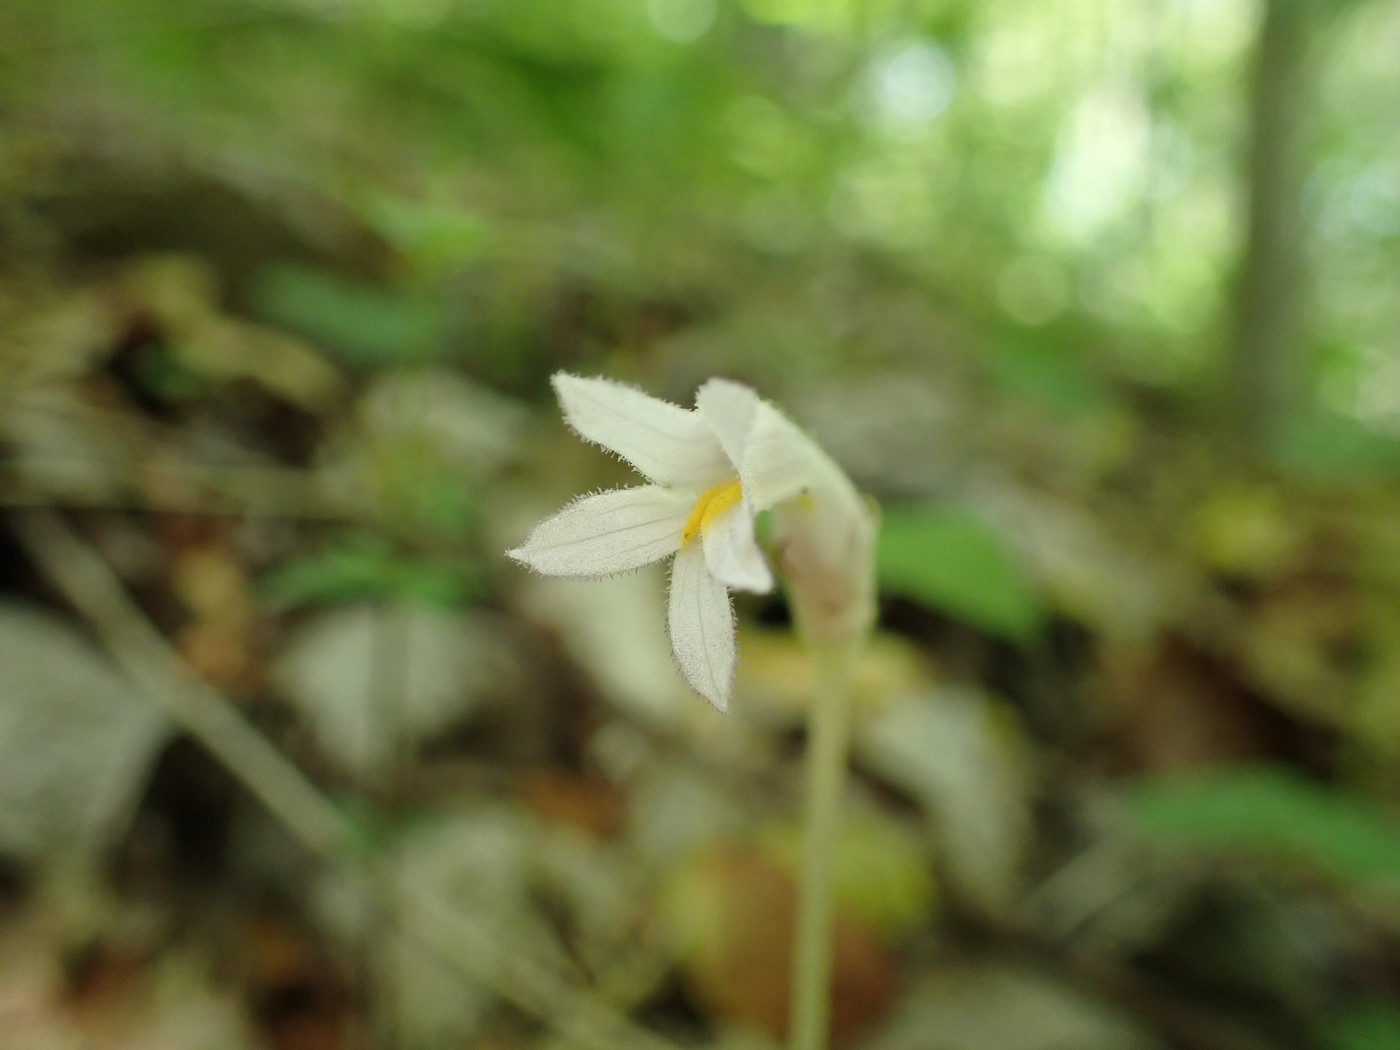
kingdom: Plantae
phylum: Tracheophyta
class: Magnoliopsida
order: Lamiales
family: Orobanchaceae
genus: Aphyllon
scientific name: Aphyllon uniflorum
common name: One-flowered broomrape
